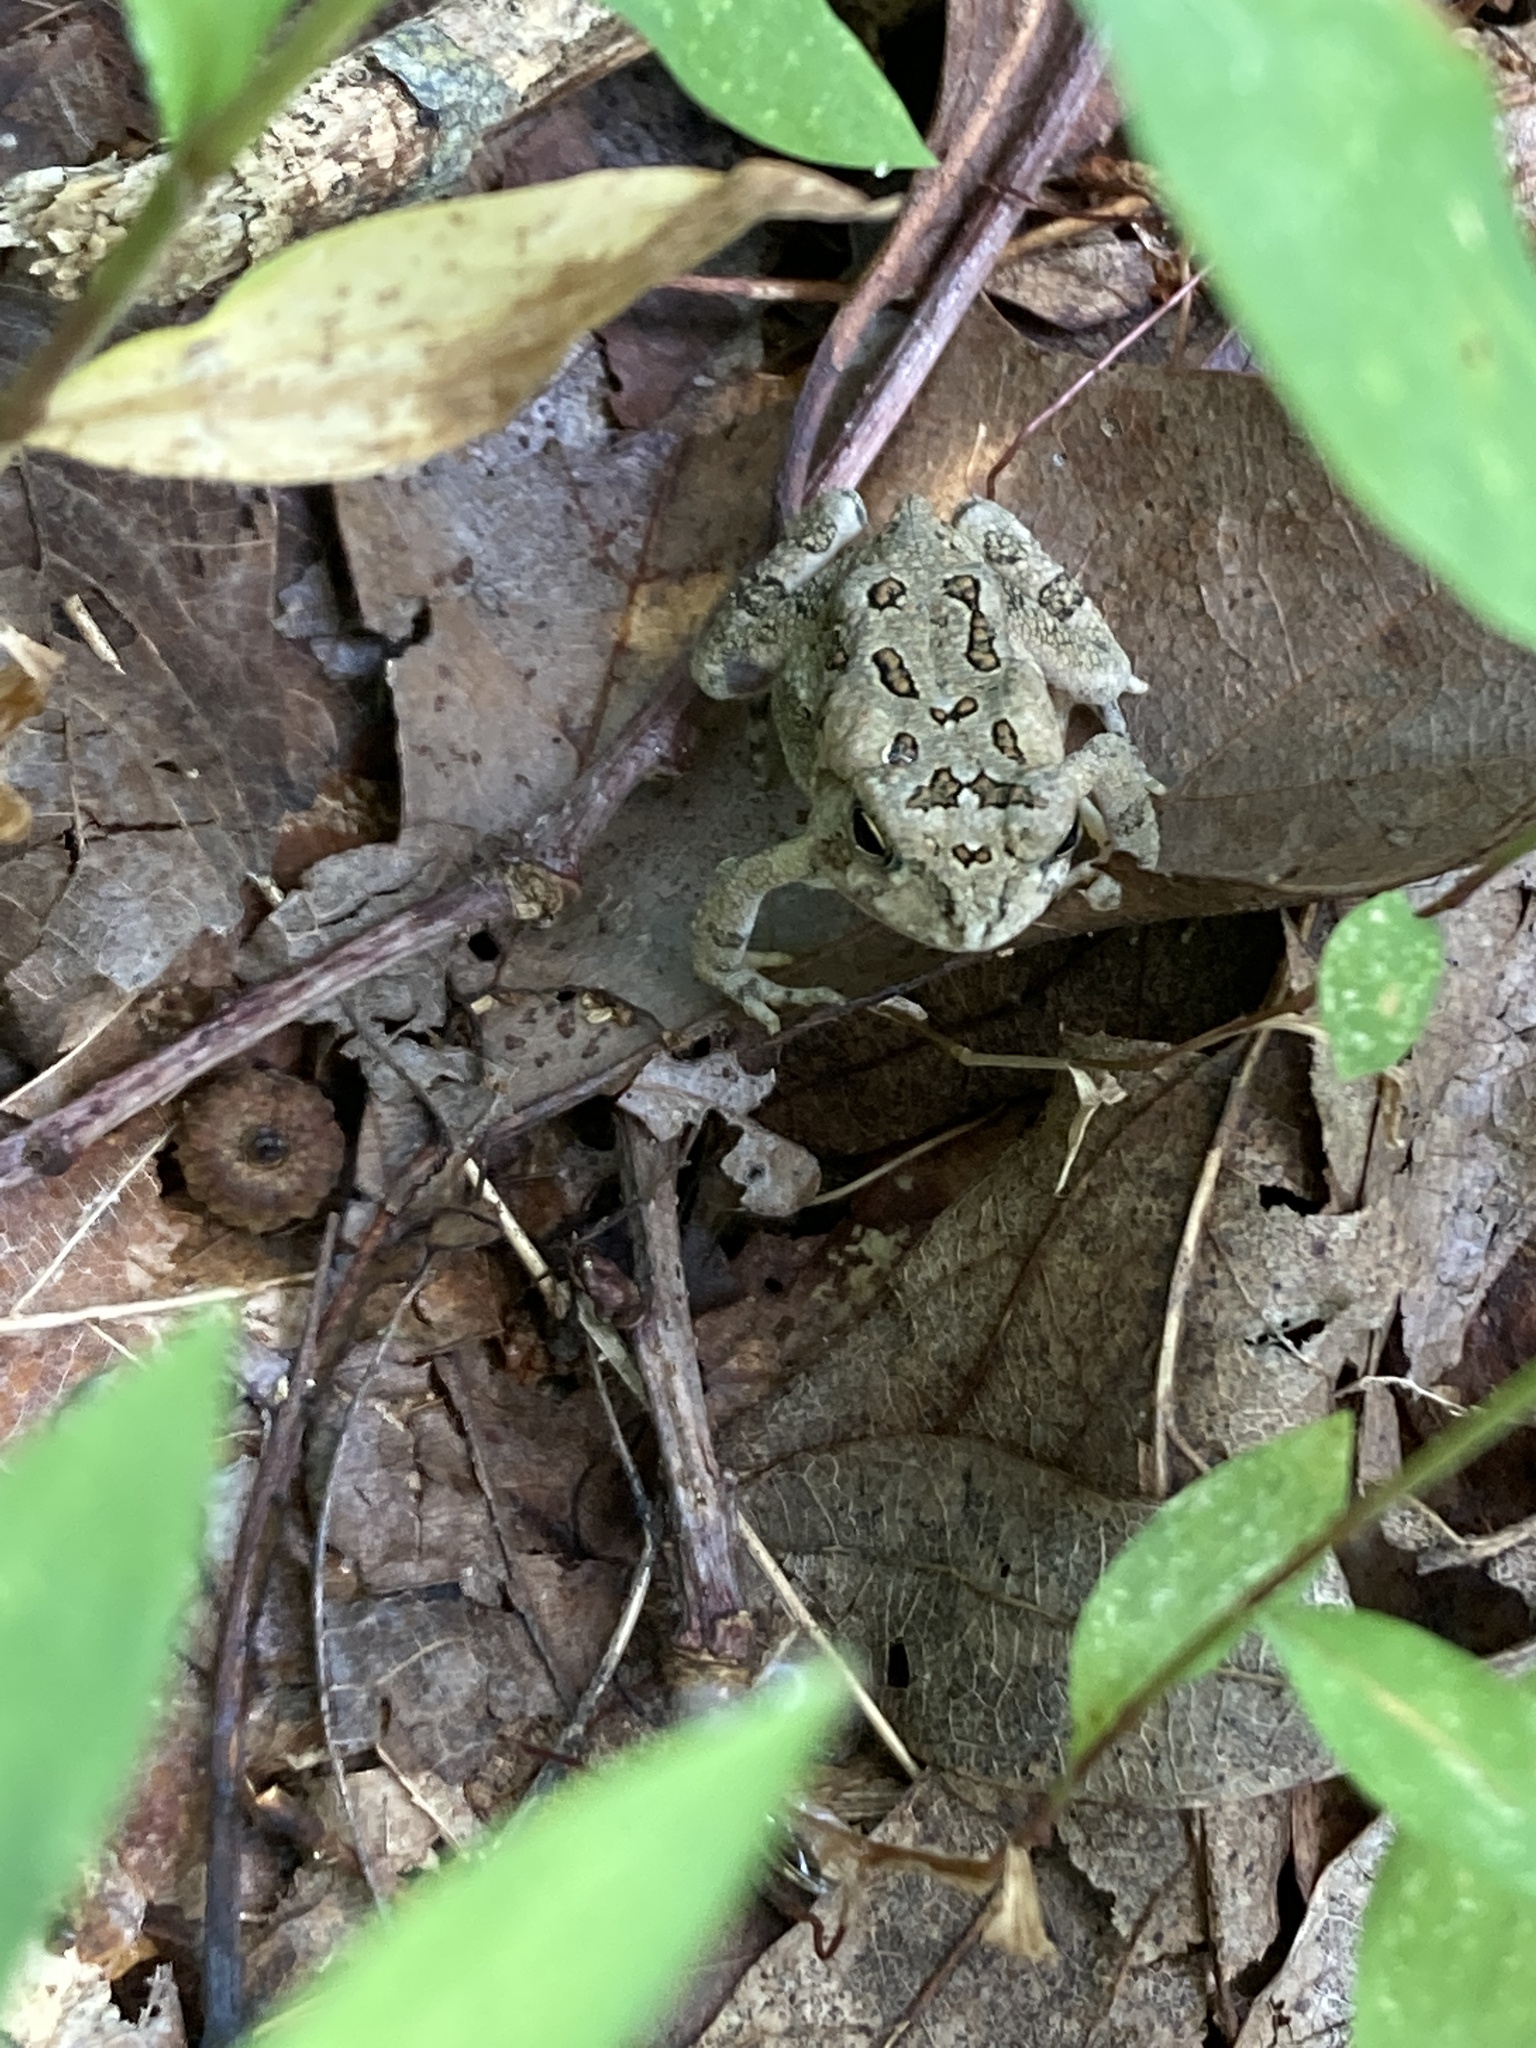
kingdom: Animalia
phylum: Chordata
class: Amphibia
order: Anura
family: Bufonidae
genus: Anaxyrus
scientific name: Anaxyrus fowleri
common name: Fowler's toad
